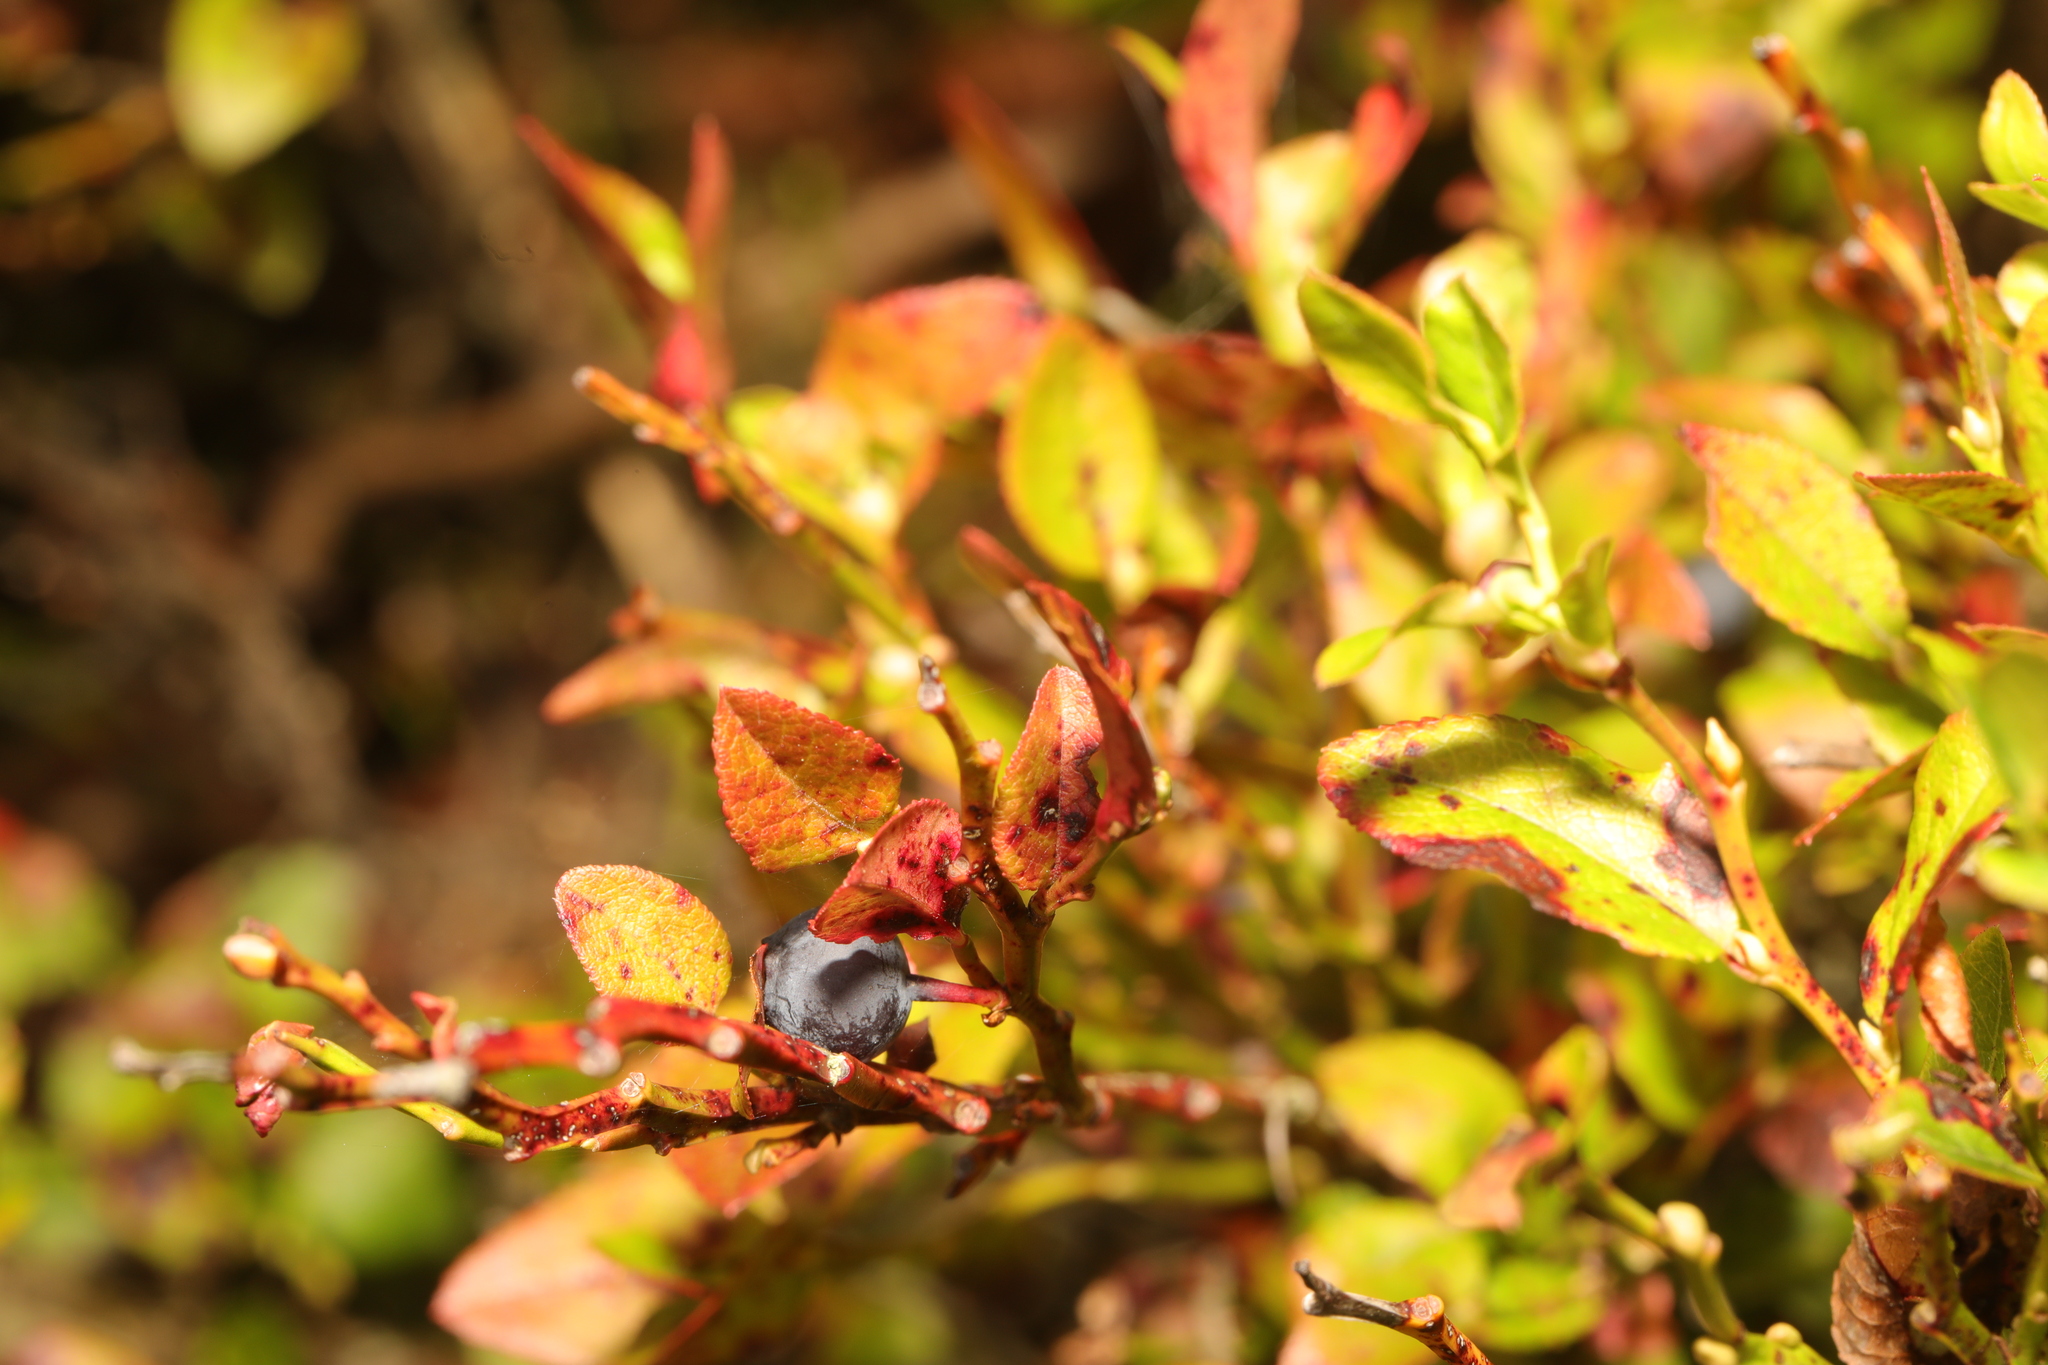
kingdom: Plantae
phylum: Tracheophyta
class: Magnoliopsida
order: Ericales
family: Ericaceae
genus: Vaccinium
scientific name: Vaccinium myrtillus
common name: Bilberry
